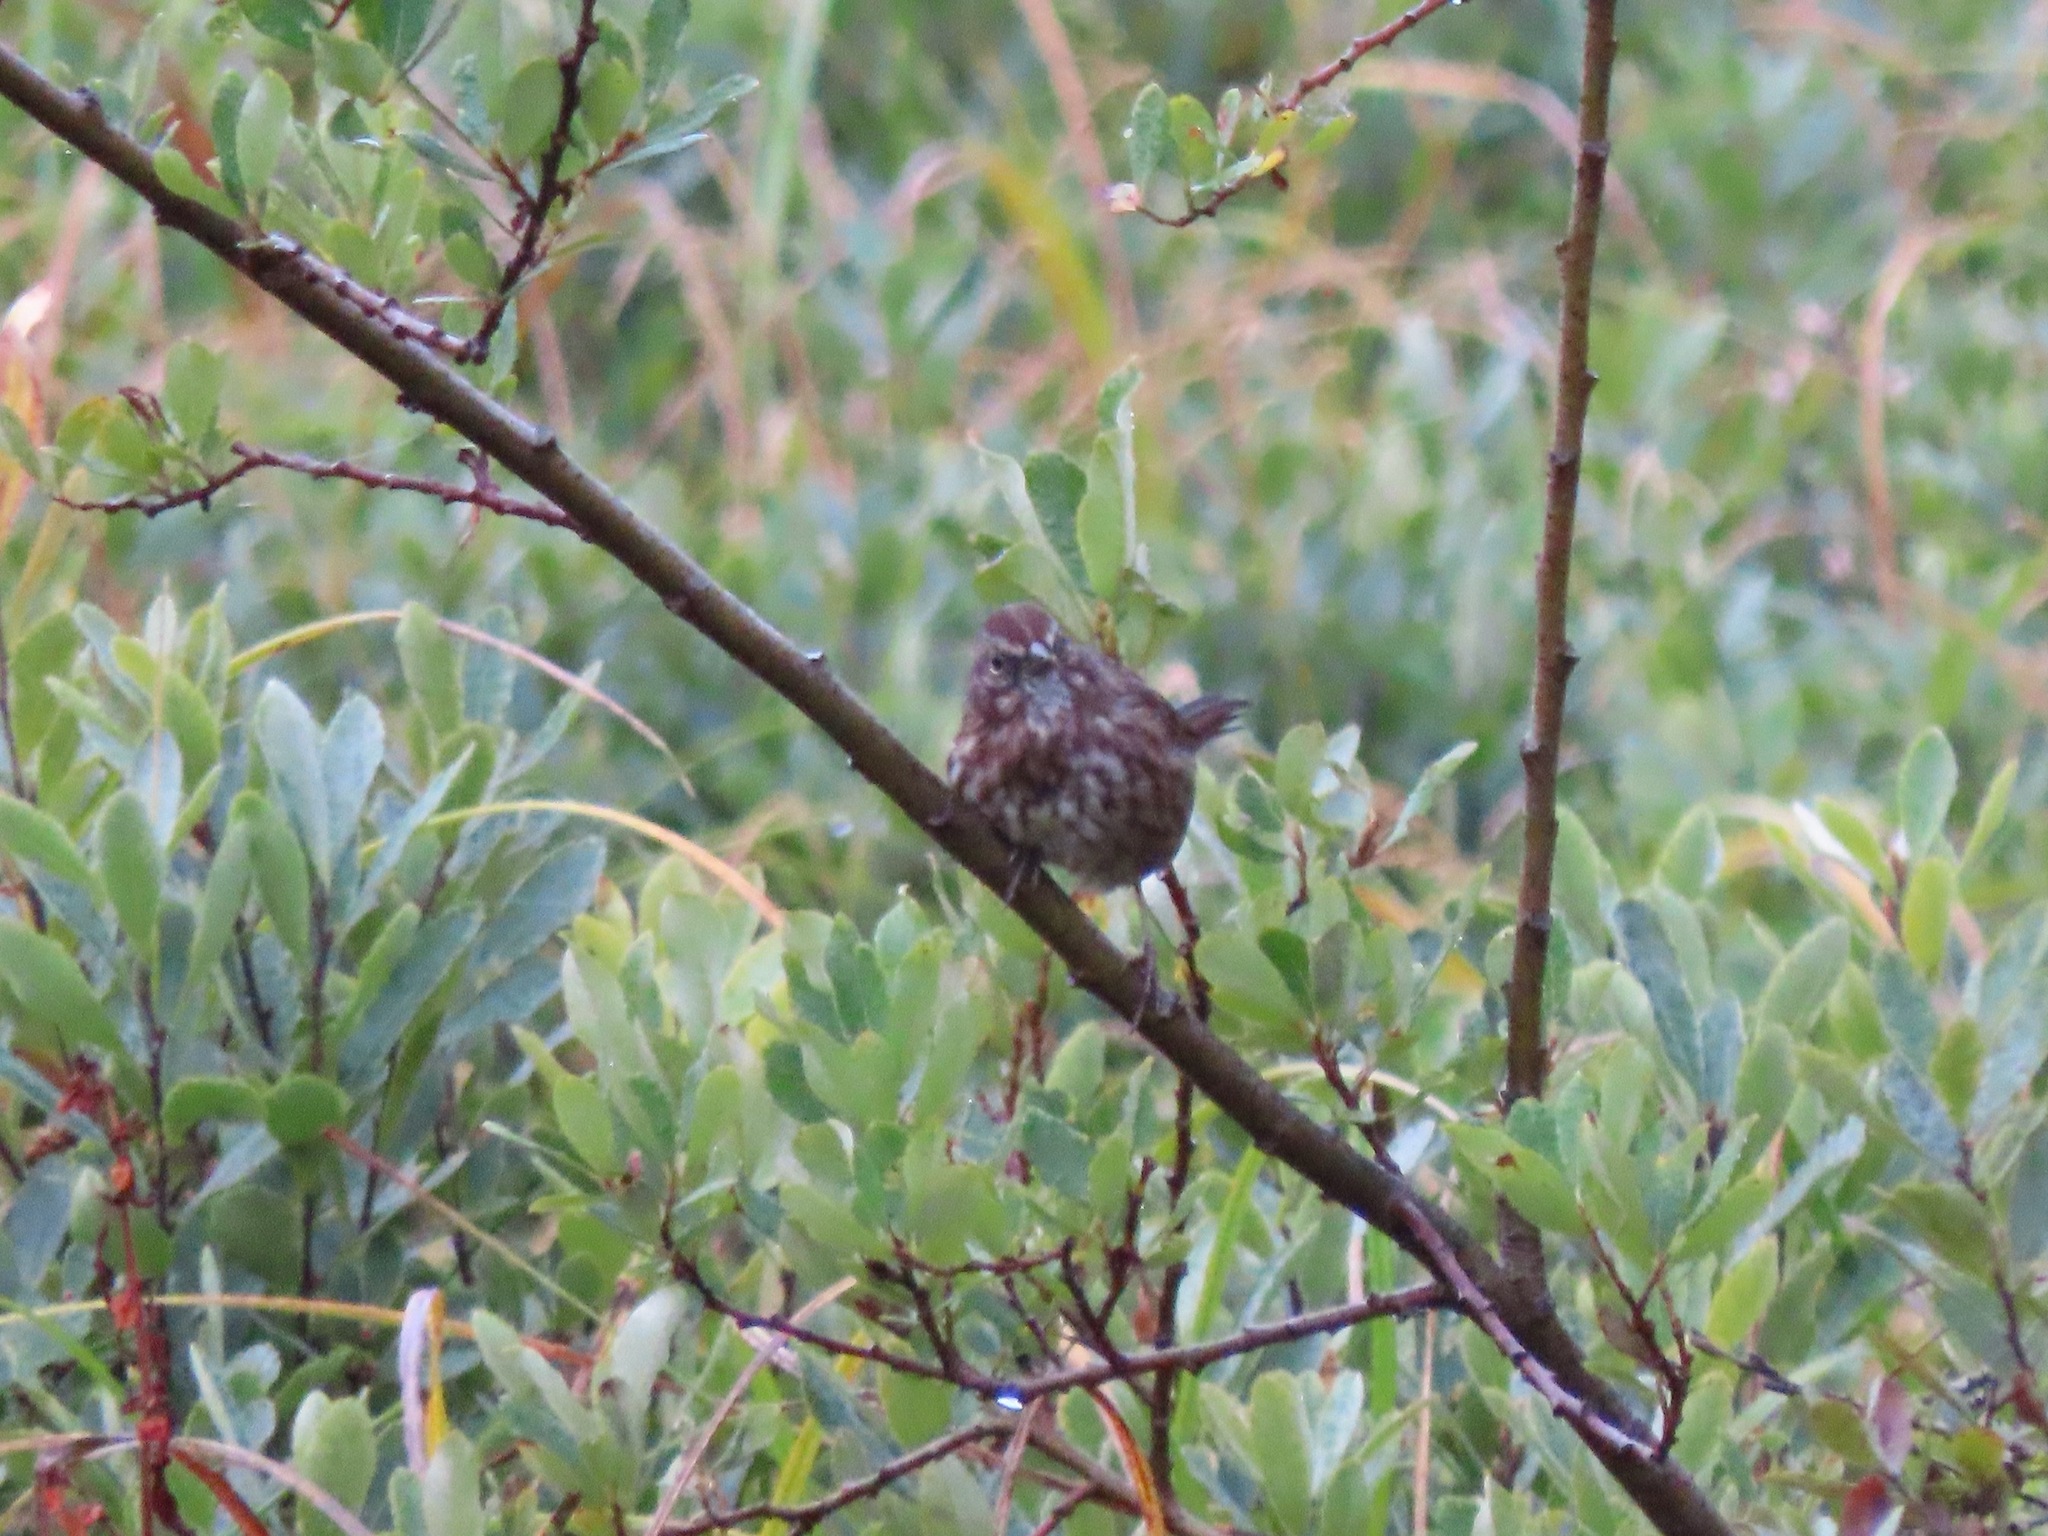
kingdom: Animalia
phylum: Chordata
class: Aves
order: Passeriformes
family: Passerellidae
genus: Melospiza
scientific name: Melospiza melodia
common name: Song sparrow
